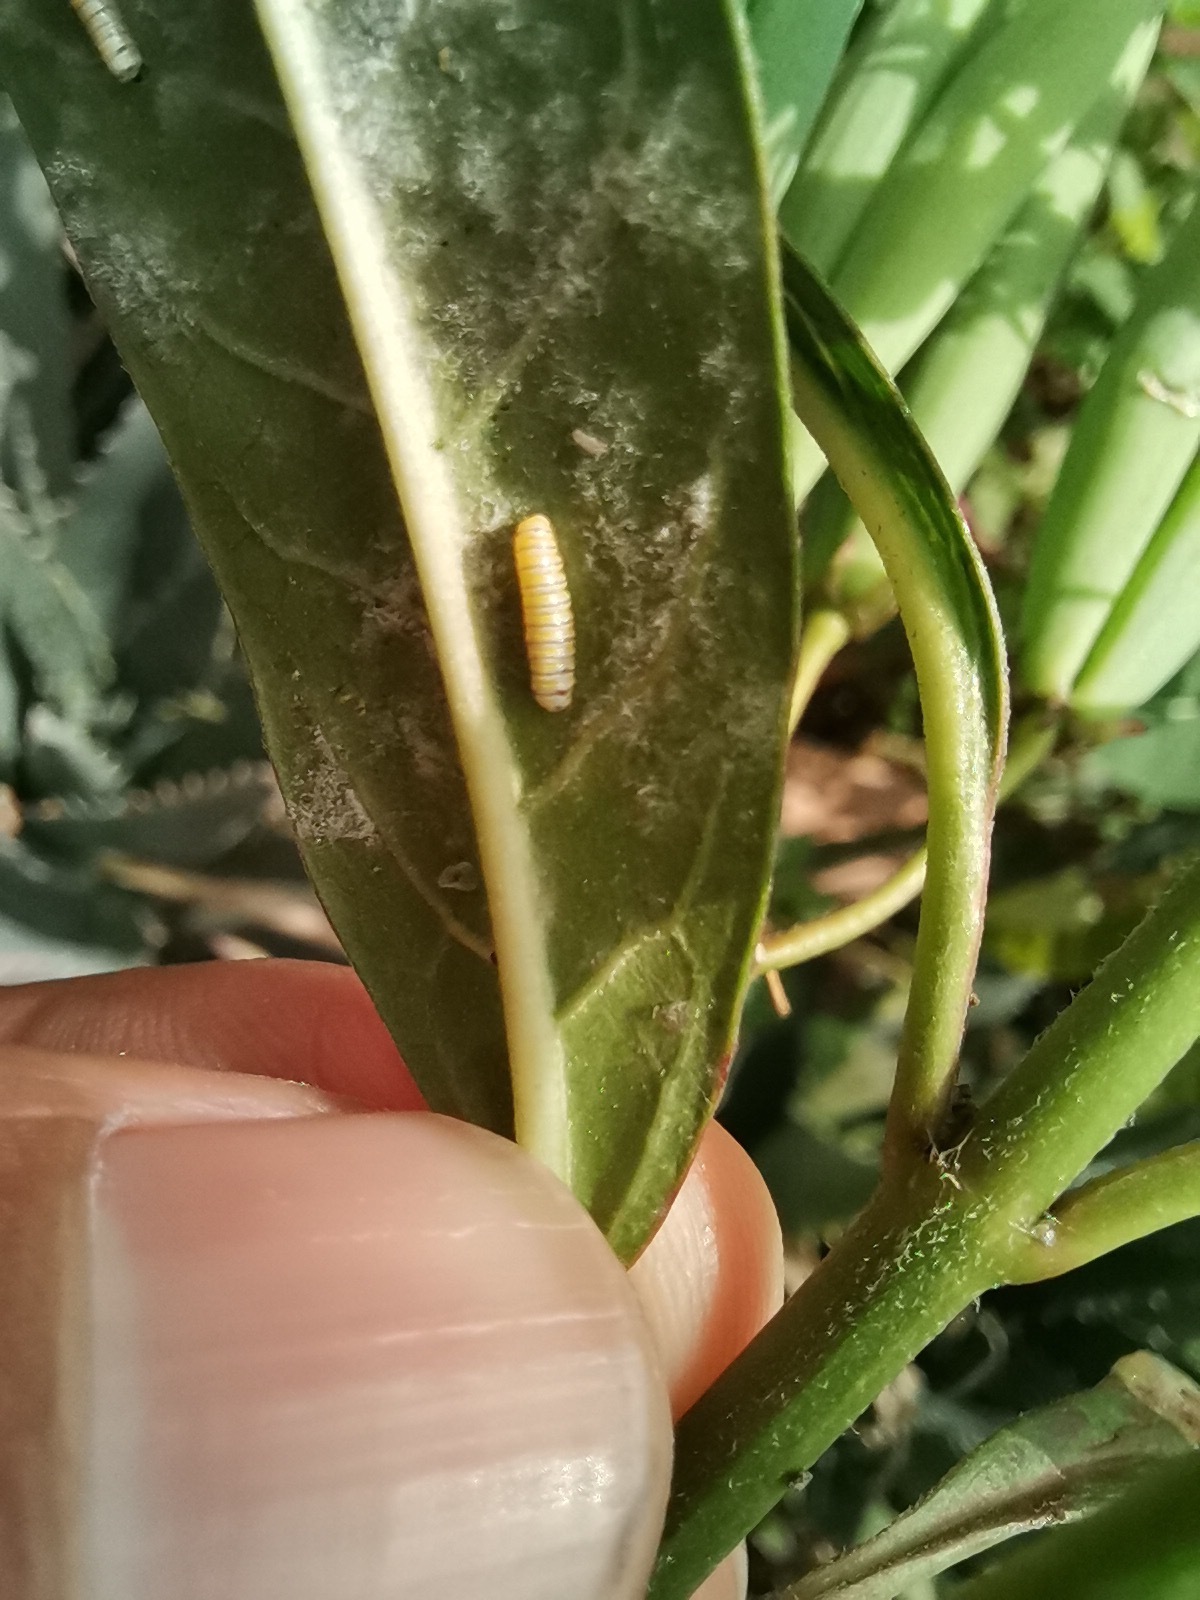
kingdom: Animalia
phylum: Arthropoda
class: Insecta
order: Lepidoptera
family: Nymphalidae
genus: Danaus
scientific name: Danaus plexippus
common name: Monarch
